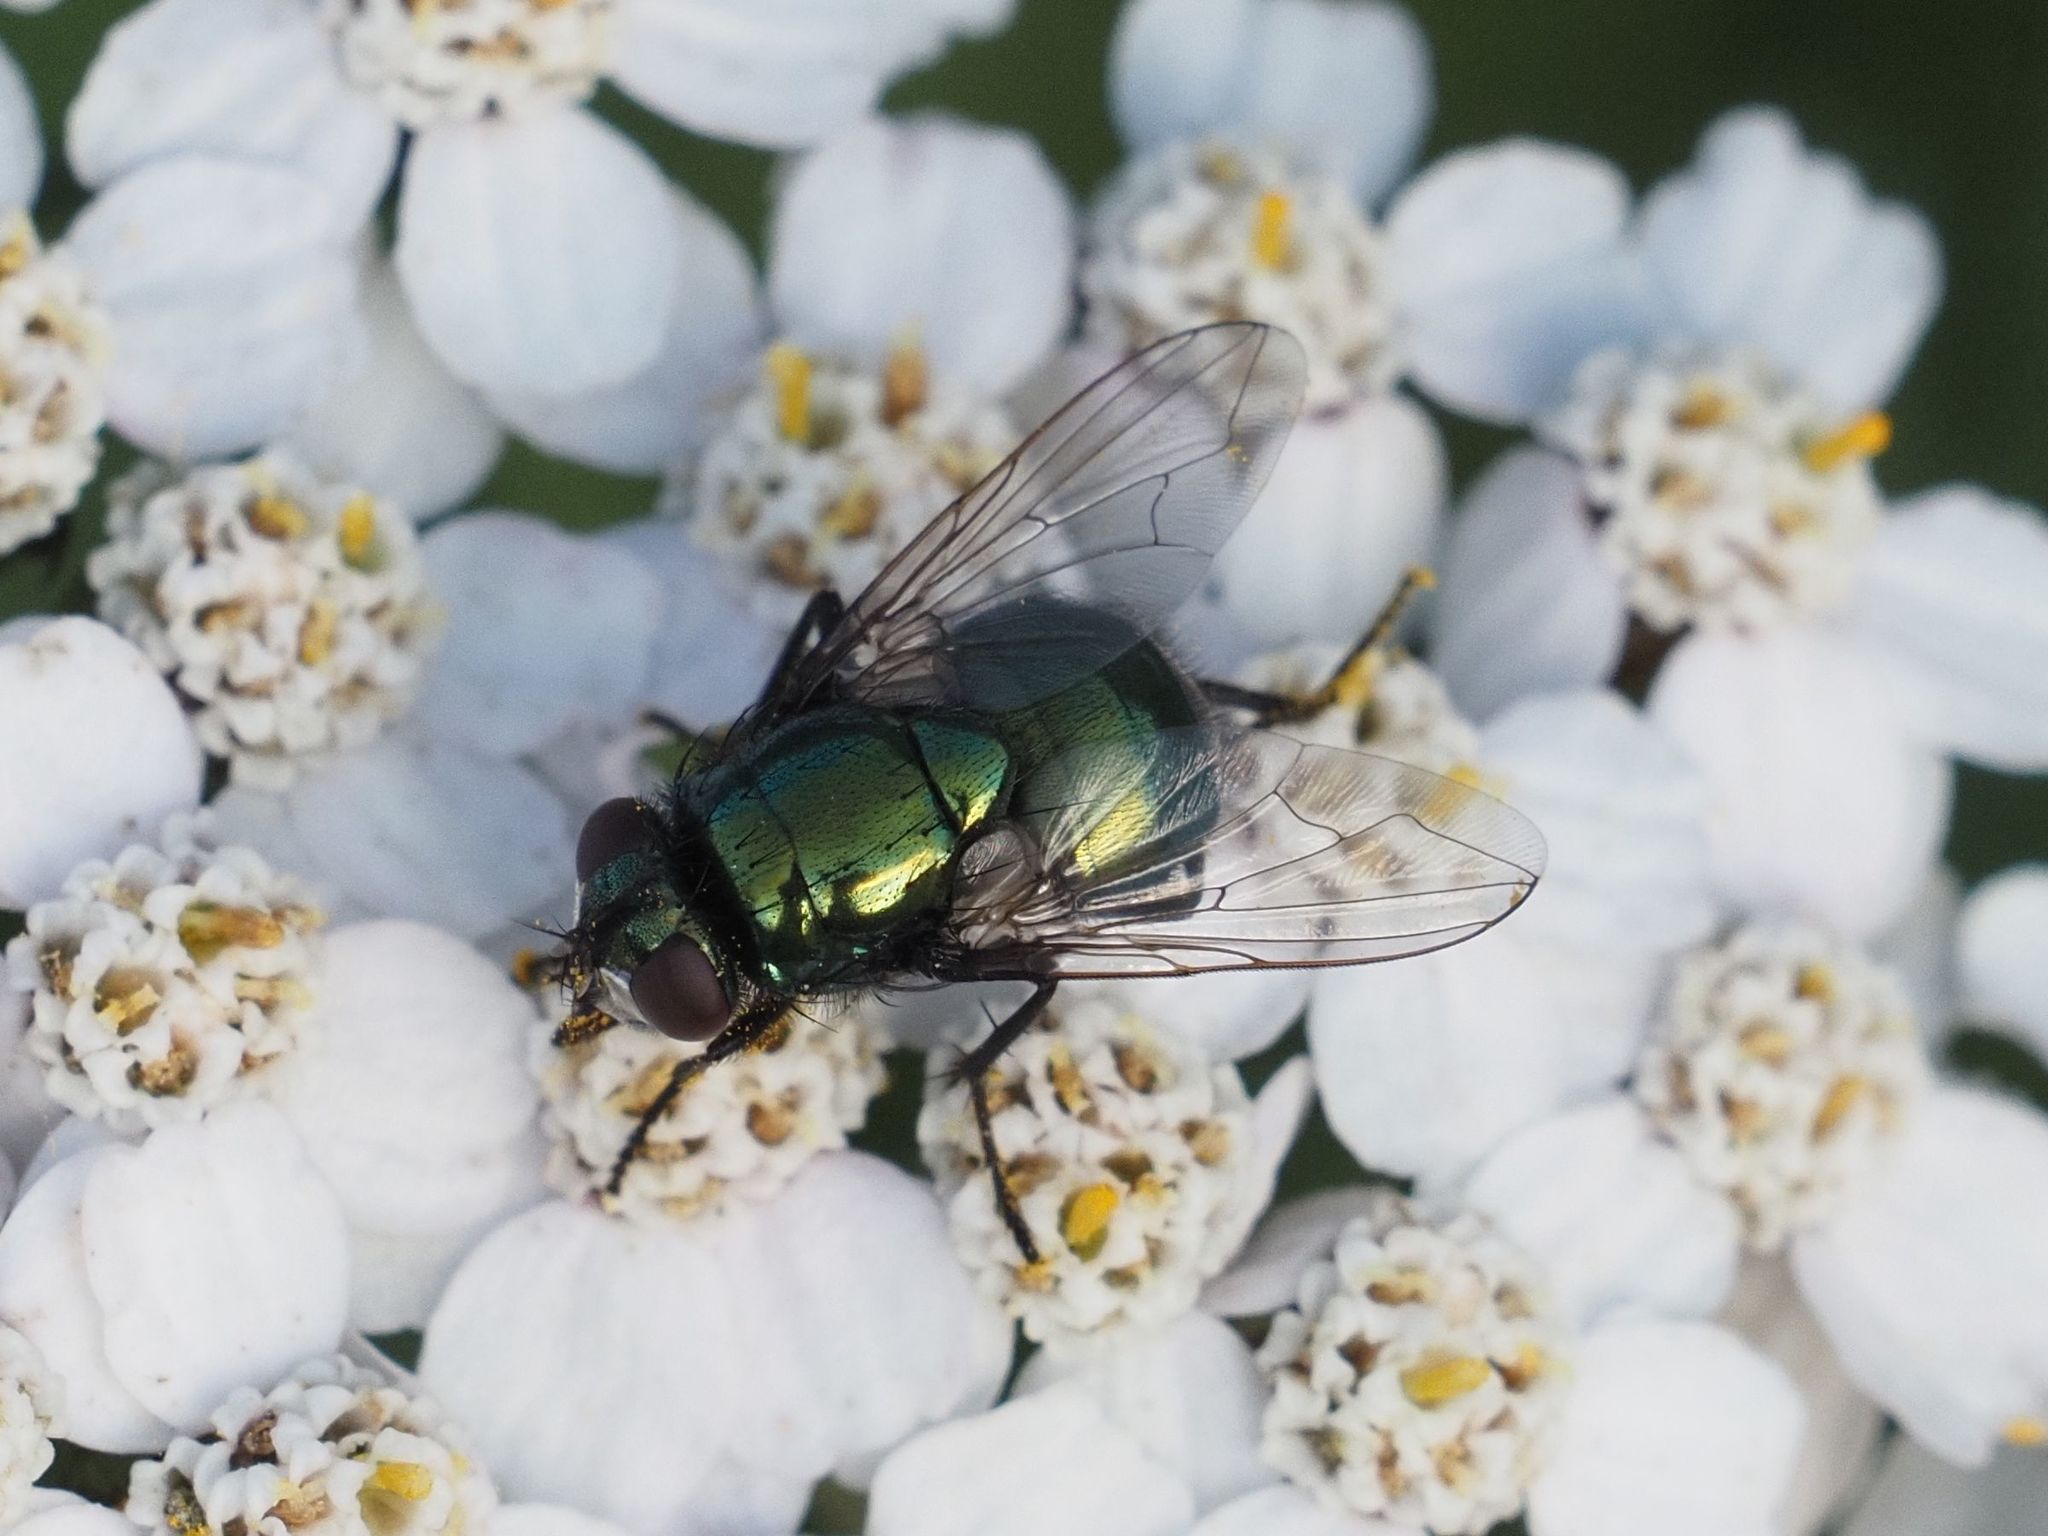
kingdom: Animalia
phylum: Arthropoda
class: Insecta
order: Diptera
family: Muscidae
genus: Neomyia
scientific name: Neomyia cornicina
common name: House fly
